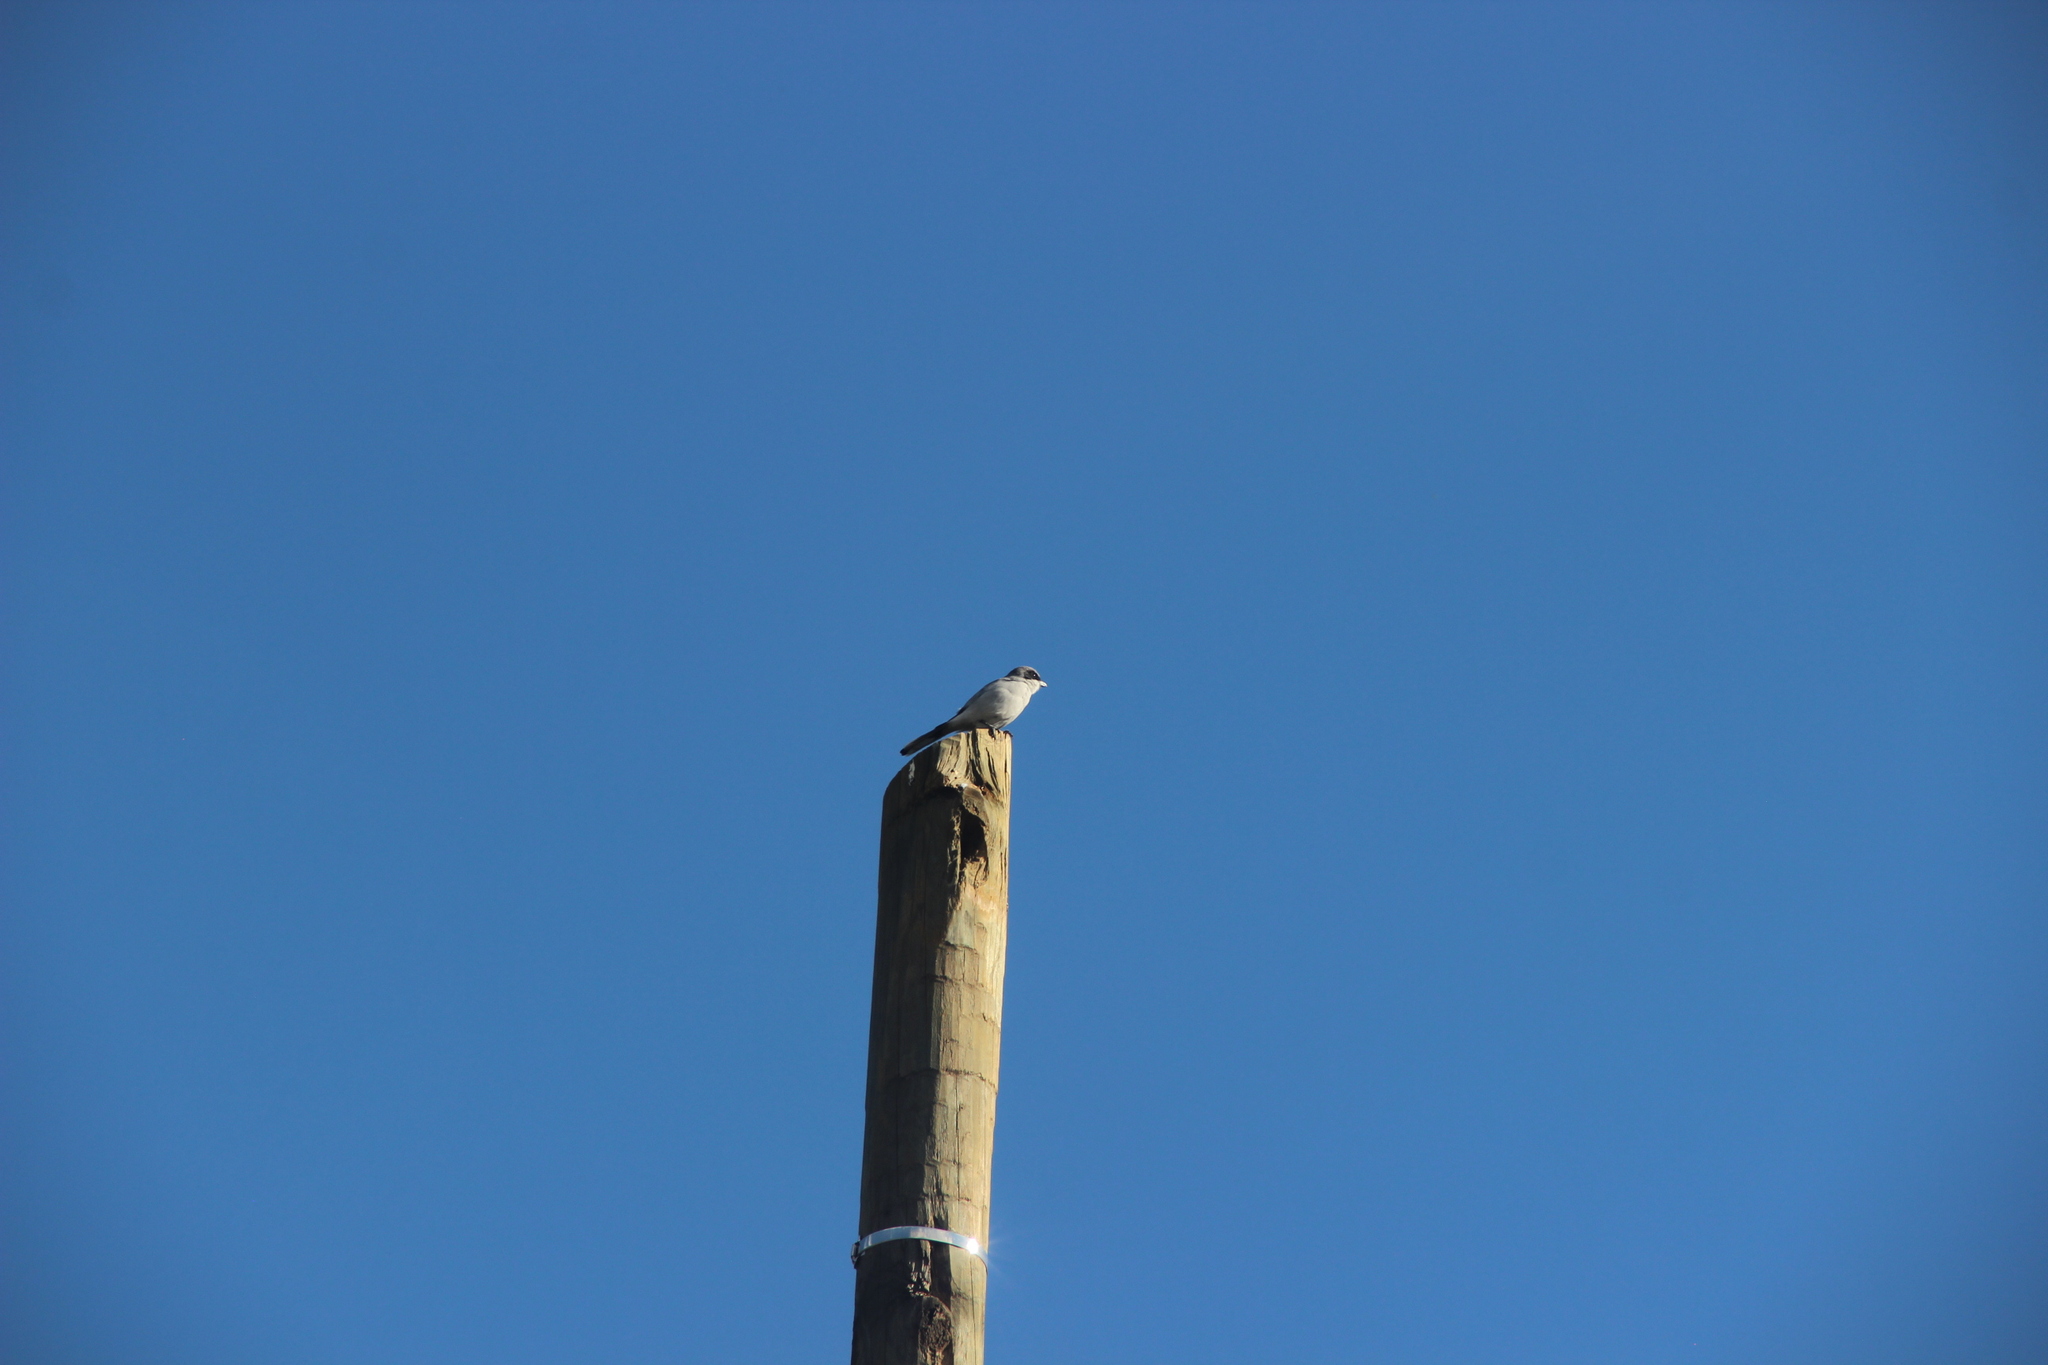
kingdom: Animalia
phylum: Chordata
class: Aves
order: Passeriformes
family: Laniidae
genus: Lanius
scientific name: Lanius ludovicianus
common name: Loggerhead shrike
